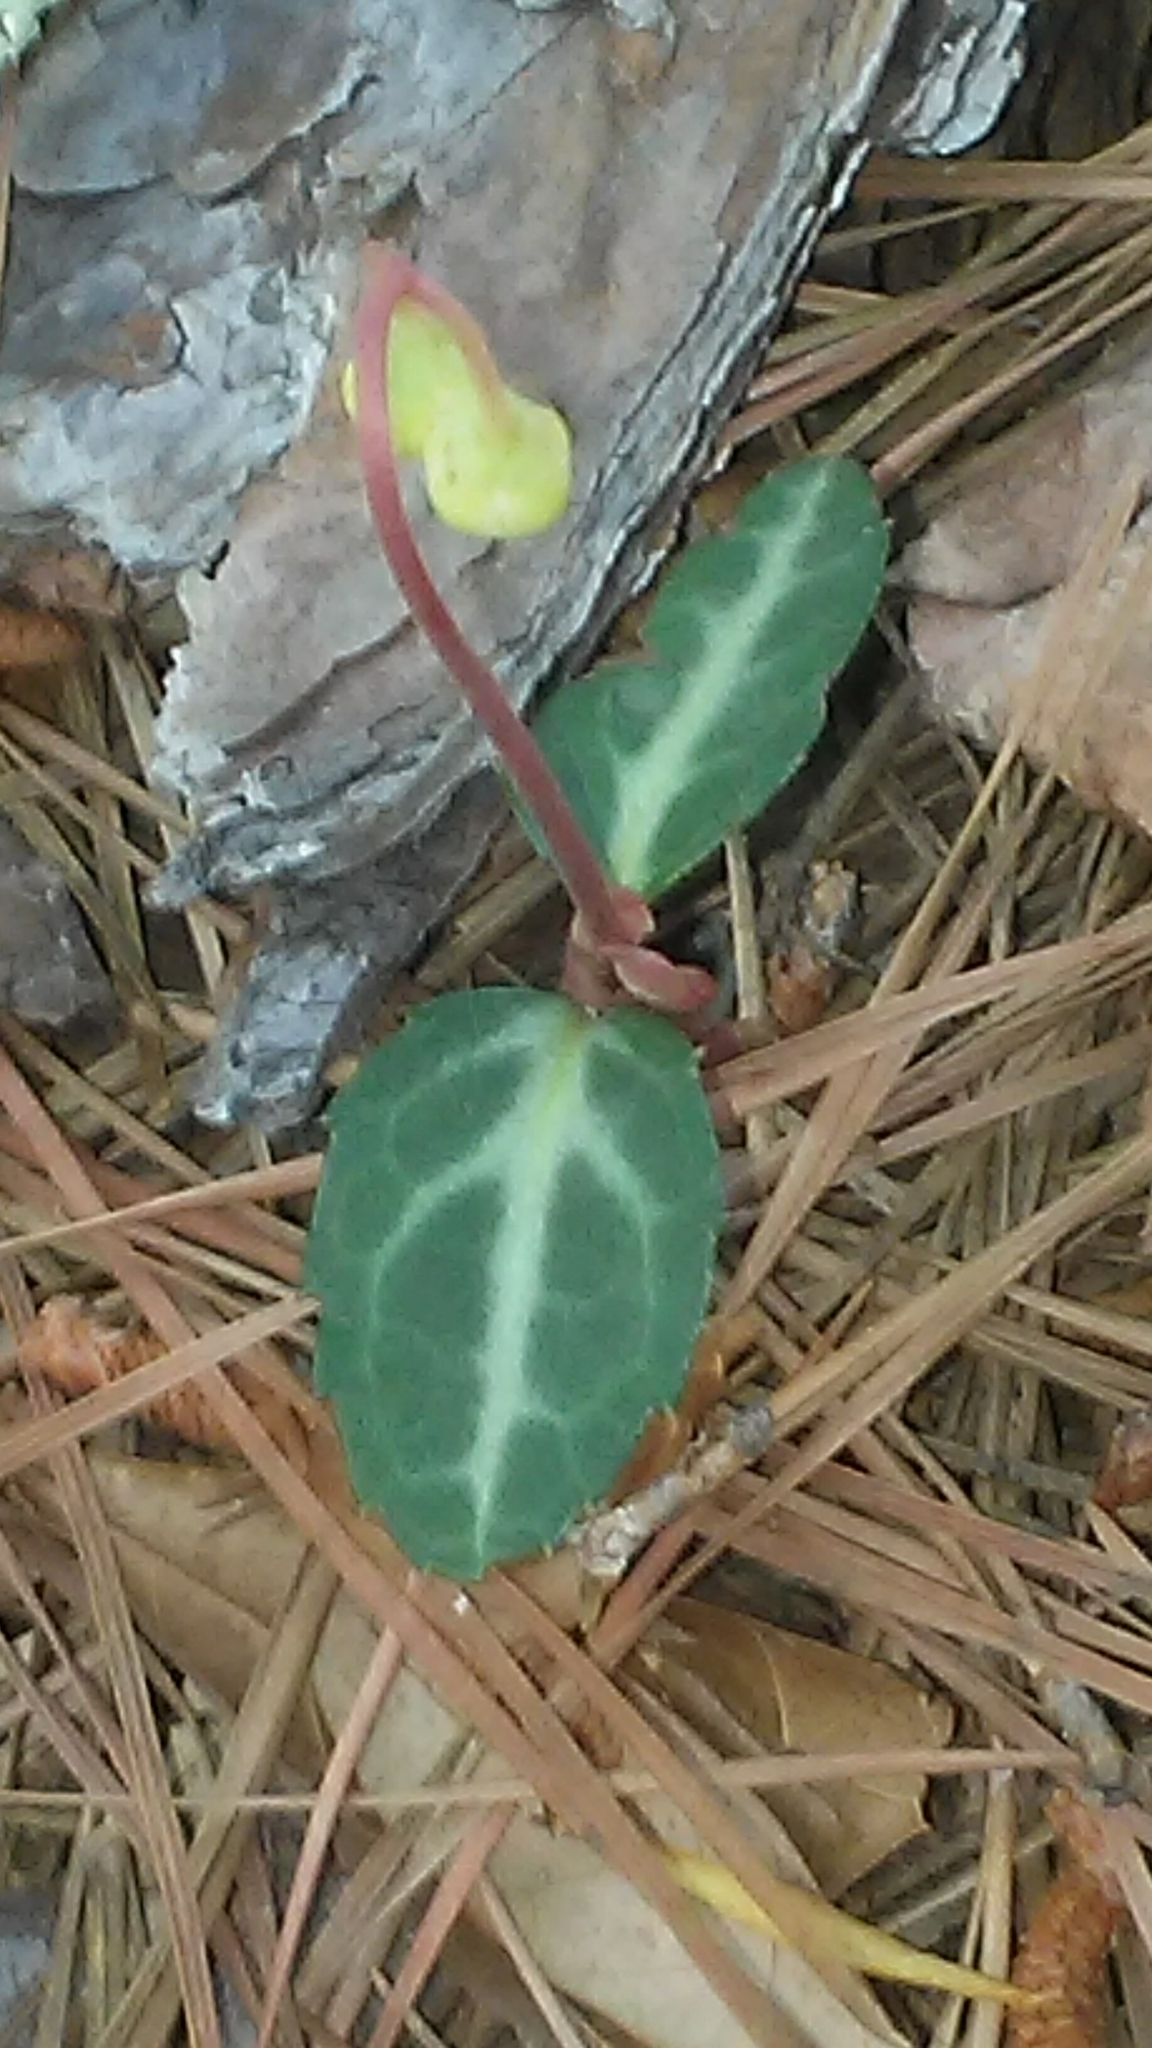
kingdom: Plantae
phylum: Tracheophyta
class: Magnoliopsida
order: Ericales
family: Ericaceae
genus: Chimaphila
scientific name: Chimaphila maculata
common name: Spotted pipsissewa
